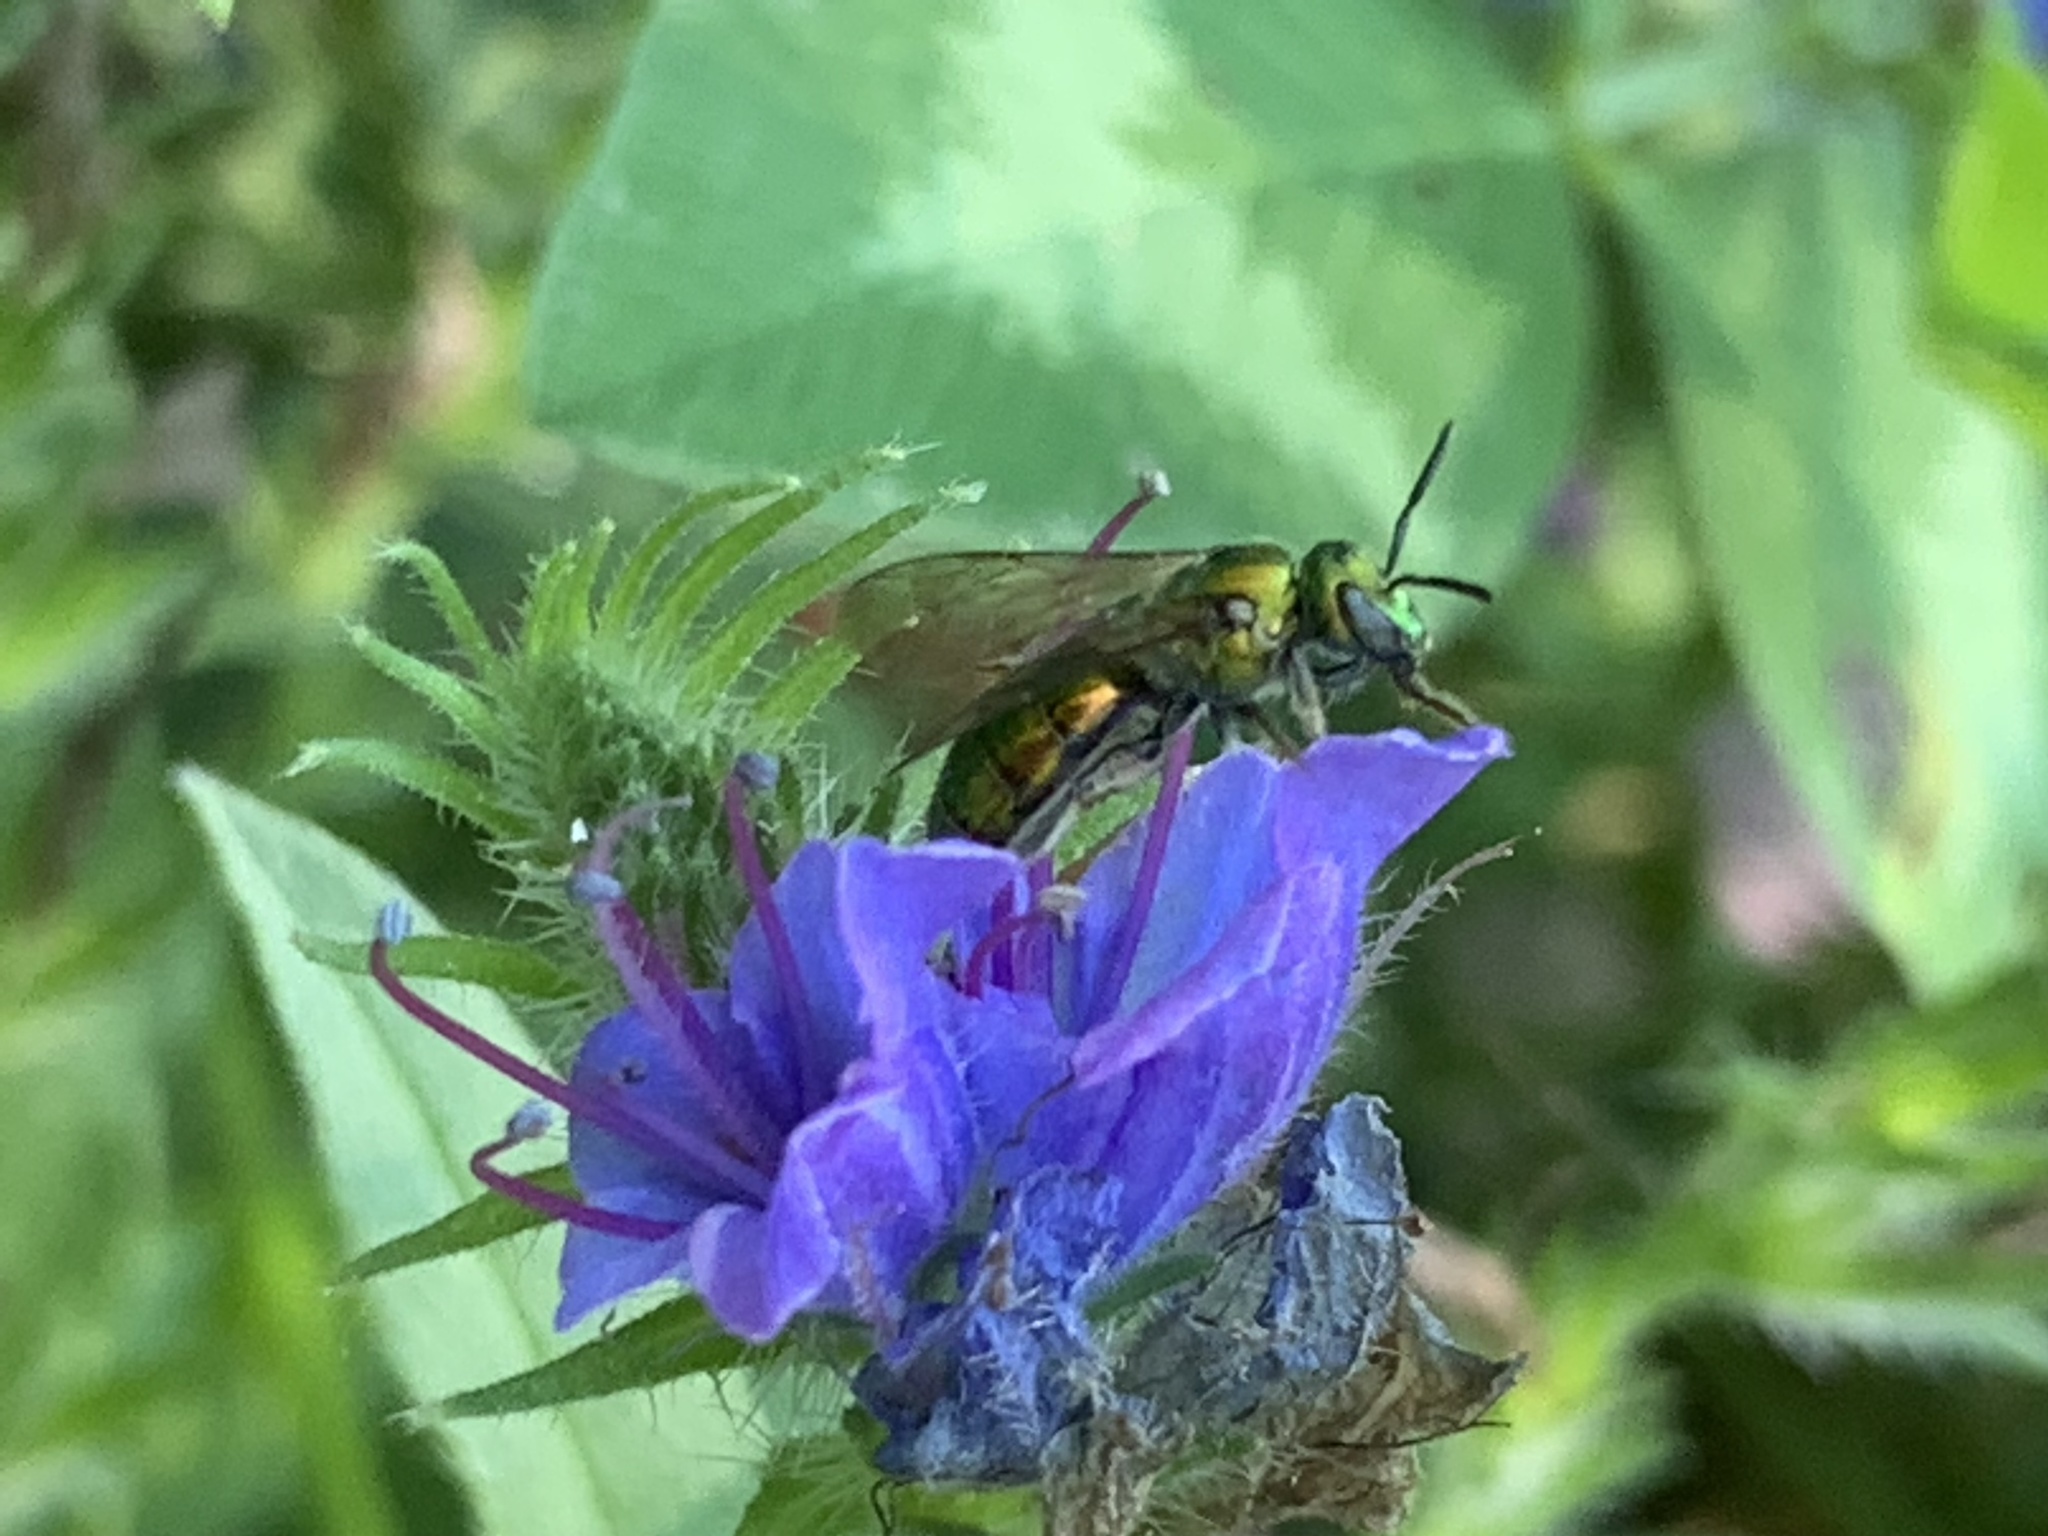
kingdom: Animalia
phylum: Arthropoda
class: Insecta
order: Hymenoptera
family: Halictidae
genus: Augochlora
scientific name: Augochlora pura
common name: Pure green sweat bee
